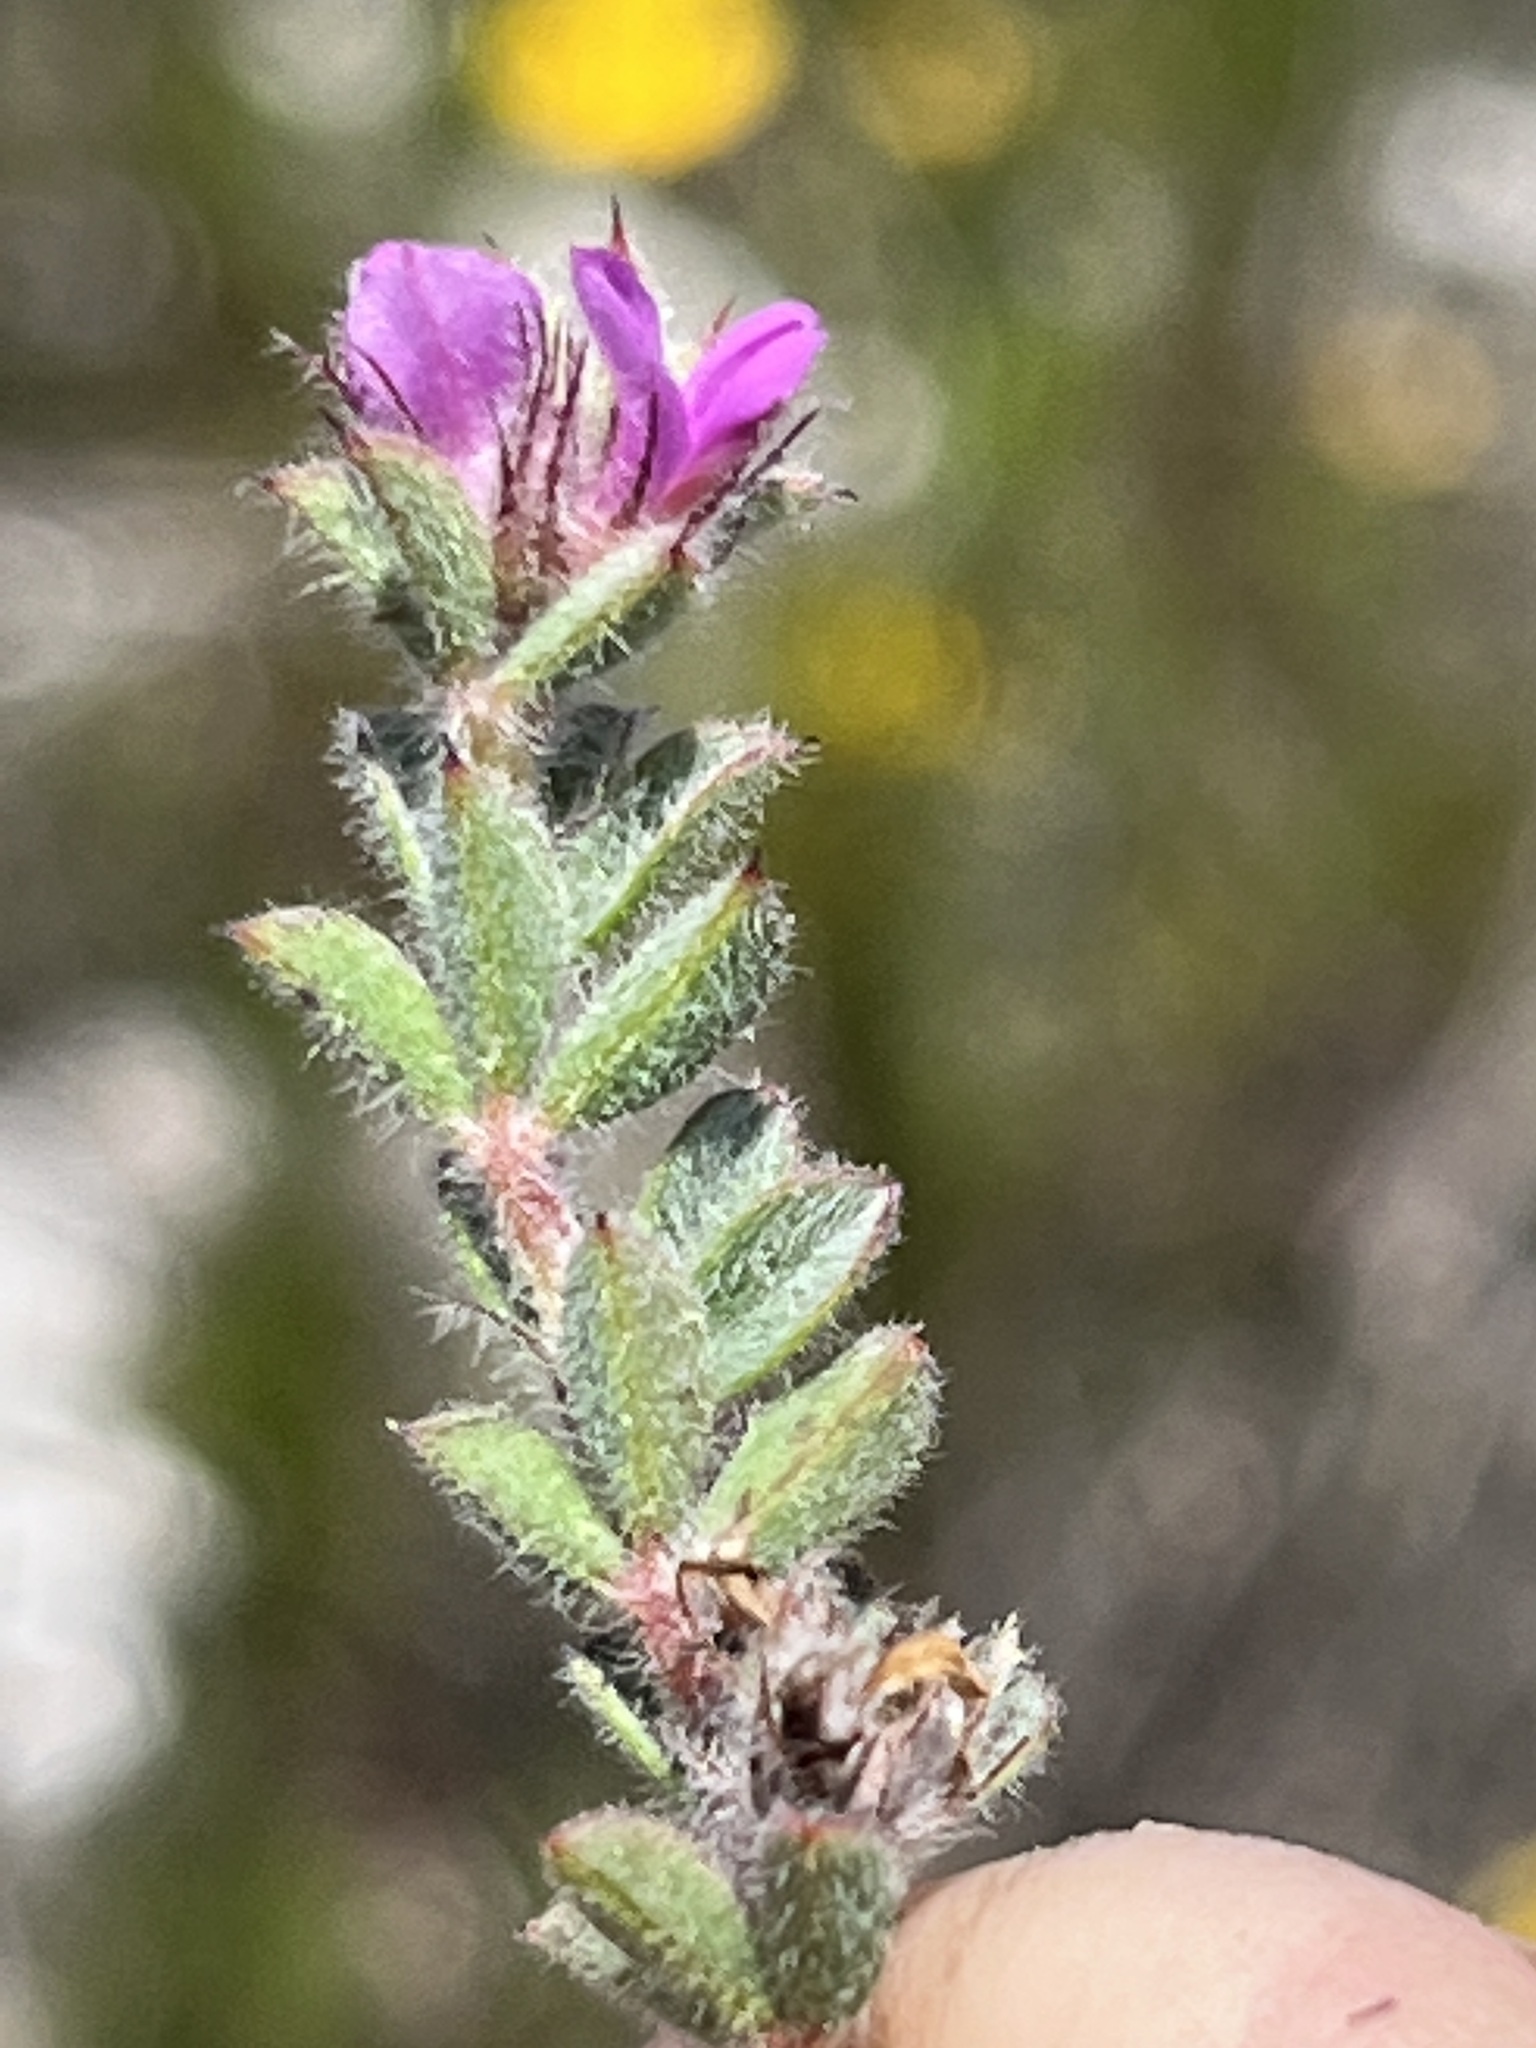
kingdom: Plantae
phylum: Tracheophyta
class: Magnoliopsida
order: Fabales
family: Fabaceae
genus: Indigofera
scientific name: Indigofera glomerata
